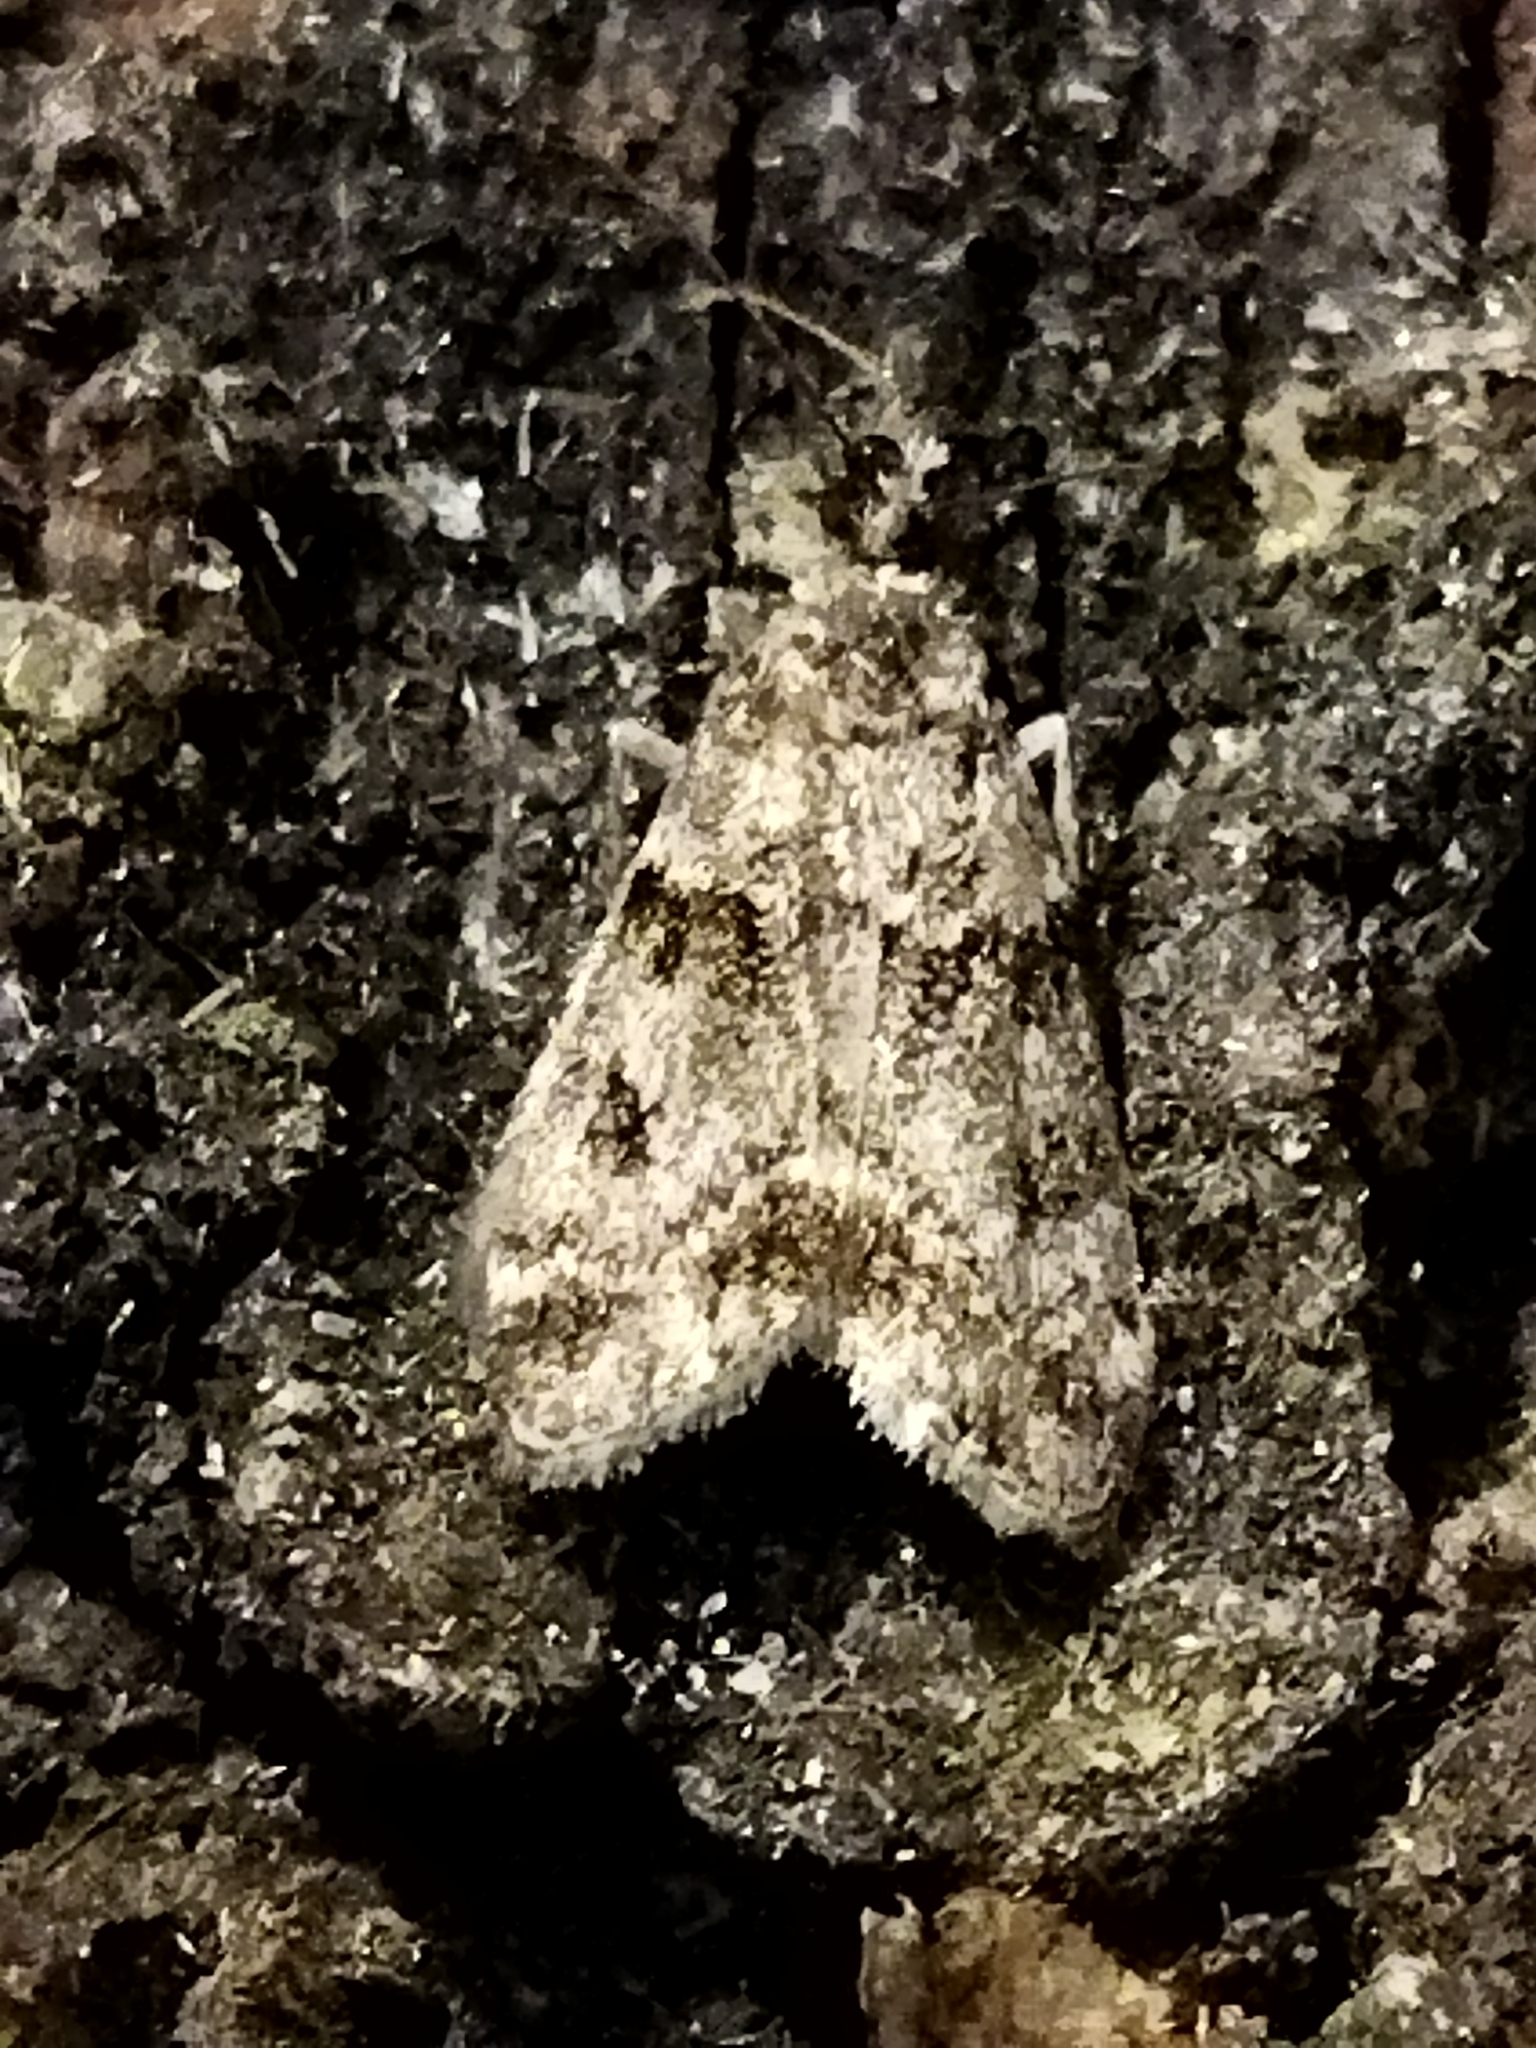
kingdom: Animalia
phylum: Arthropoda
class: Insecta
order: Lepidoptera
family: Crambidae
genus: Eudonia
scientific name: Eudonia mercurella
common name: Small grey
